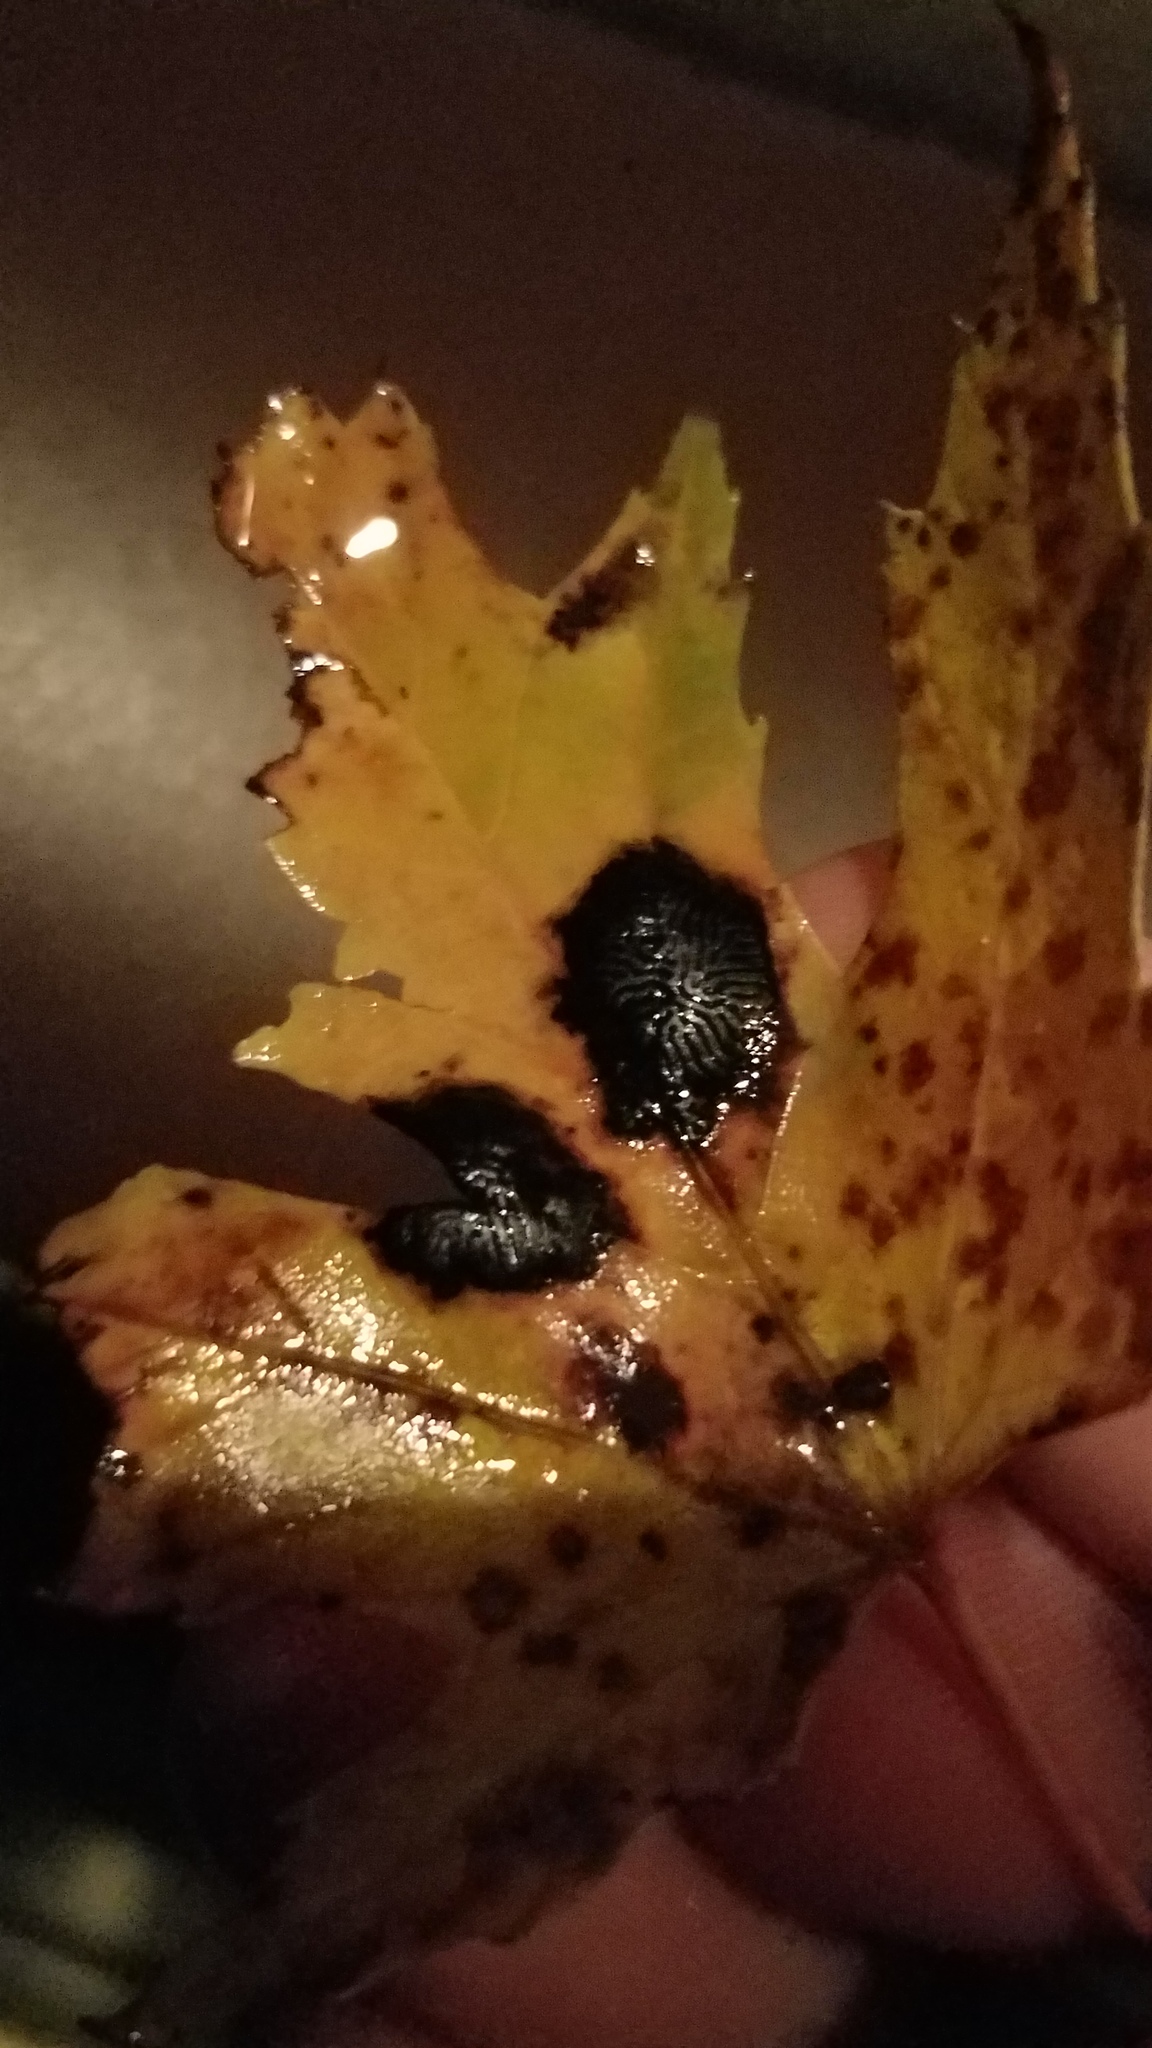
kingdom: Fungi
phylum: Ascomycota
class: Leotiomycetes
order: Rhytismatales
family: Rhytismataceae
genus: Rhytisma
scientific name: Rhytisma americanum
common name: American tar spot
